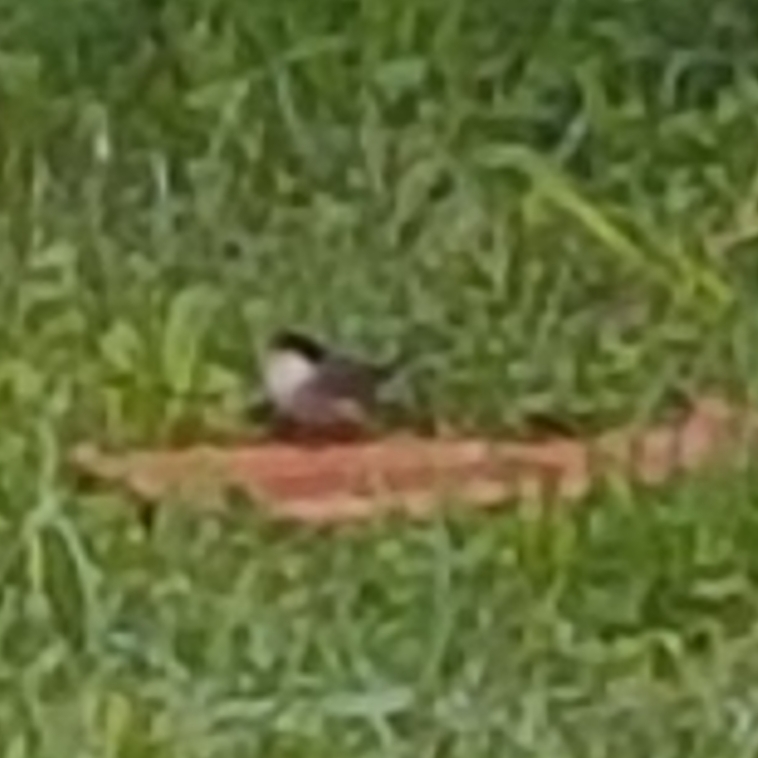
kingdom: Animalia
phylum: Chordata
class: Aves
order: Passeriformes
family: Sylviidae
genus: Curruca
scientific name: Curruca melanocephala
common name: Sardinian warbler
